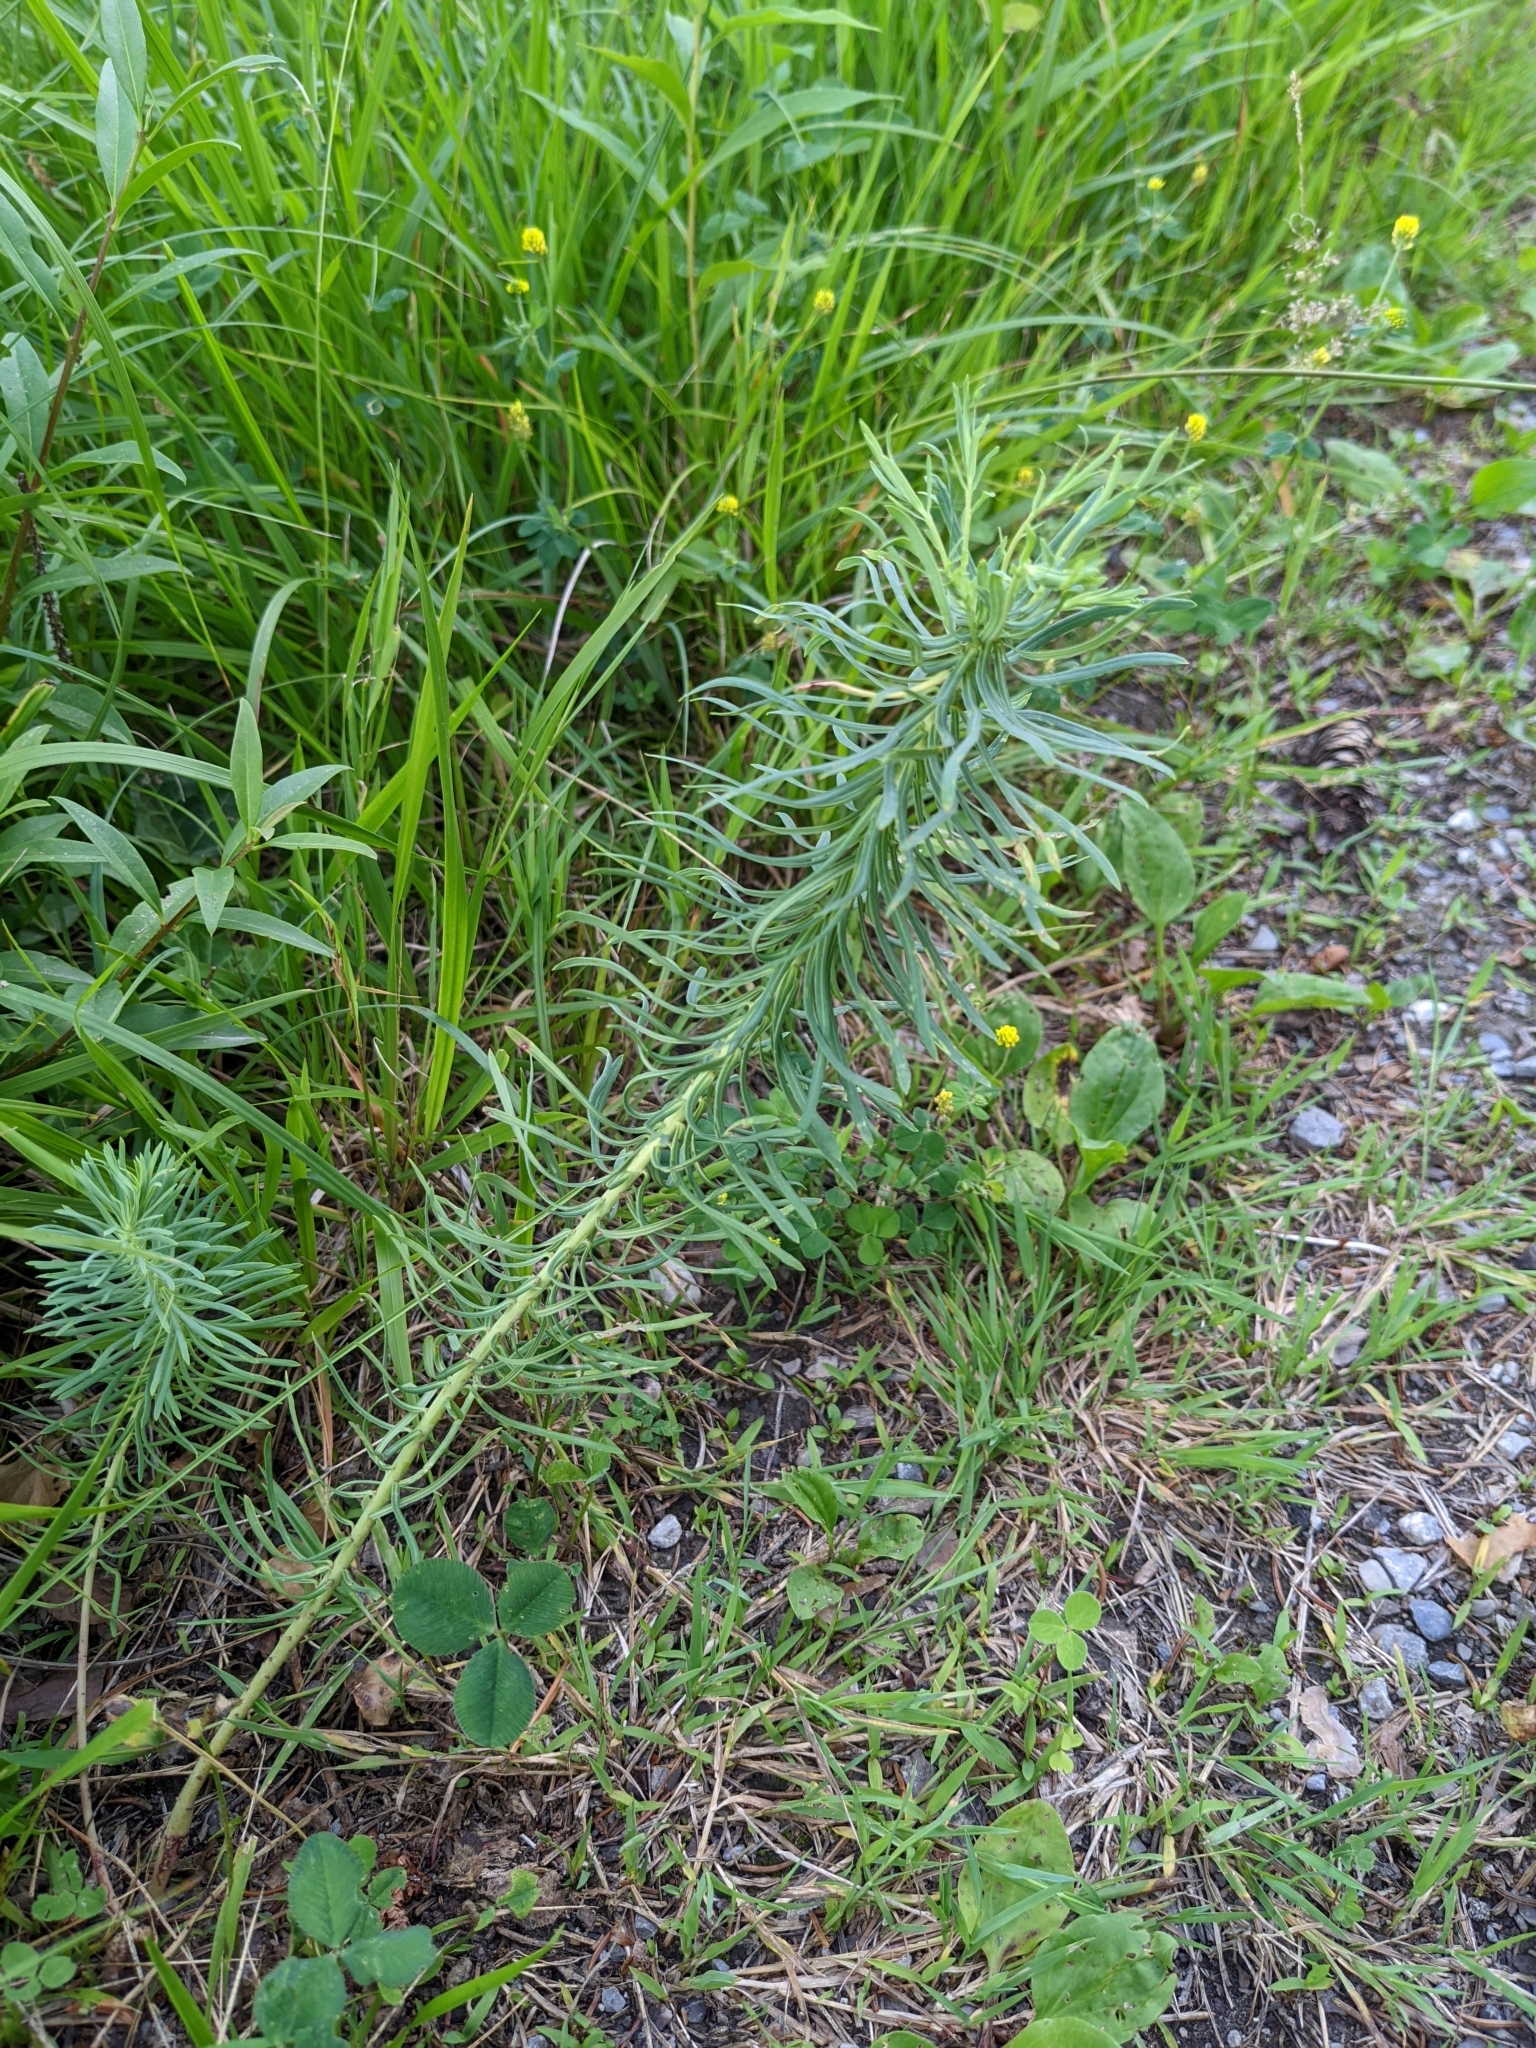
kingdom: Plantae
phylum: Tracheophyta
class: Magnoliopsida
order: Malpighiales
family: Euphorbiaceae
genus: Euphorbia
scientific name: Euphorbia cyparissias
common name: Cypress spurge
